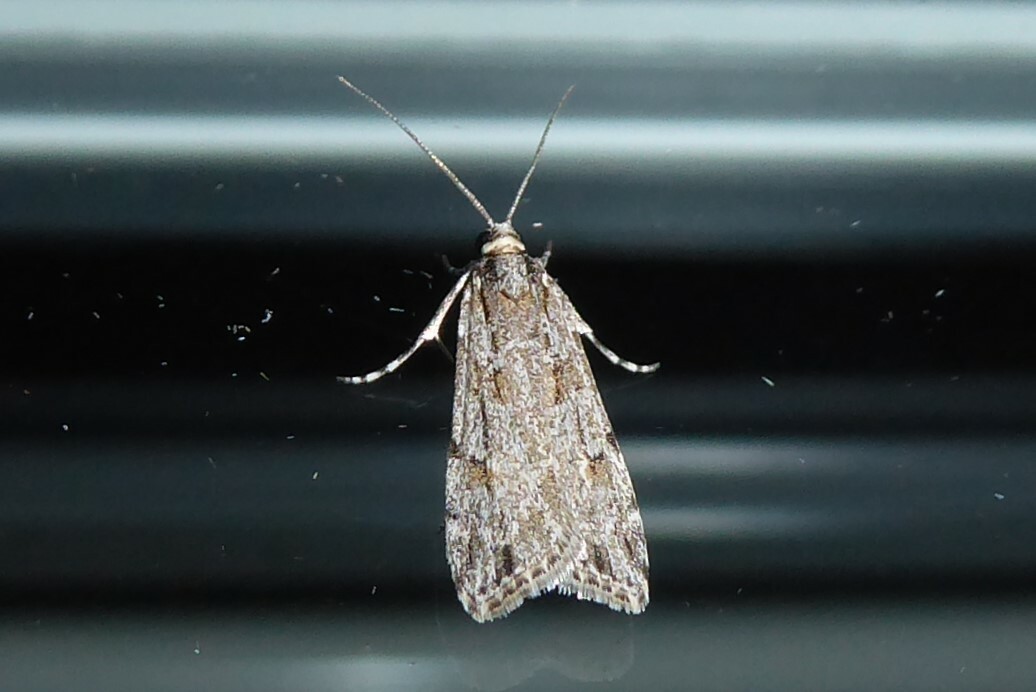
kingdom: Animalia
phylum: Arthropoda
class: Insecta
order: Lepidoptera
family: Crambidae
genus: Scoparia
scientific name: Scoparia chalicodes
